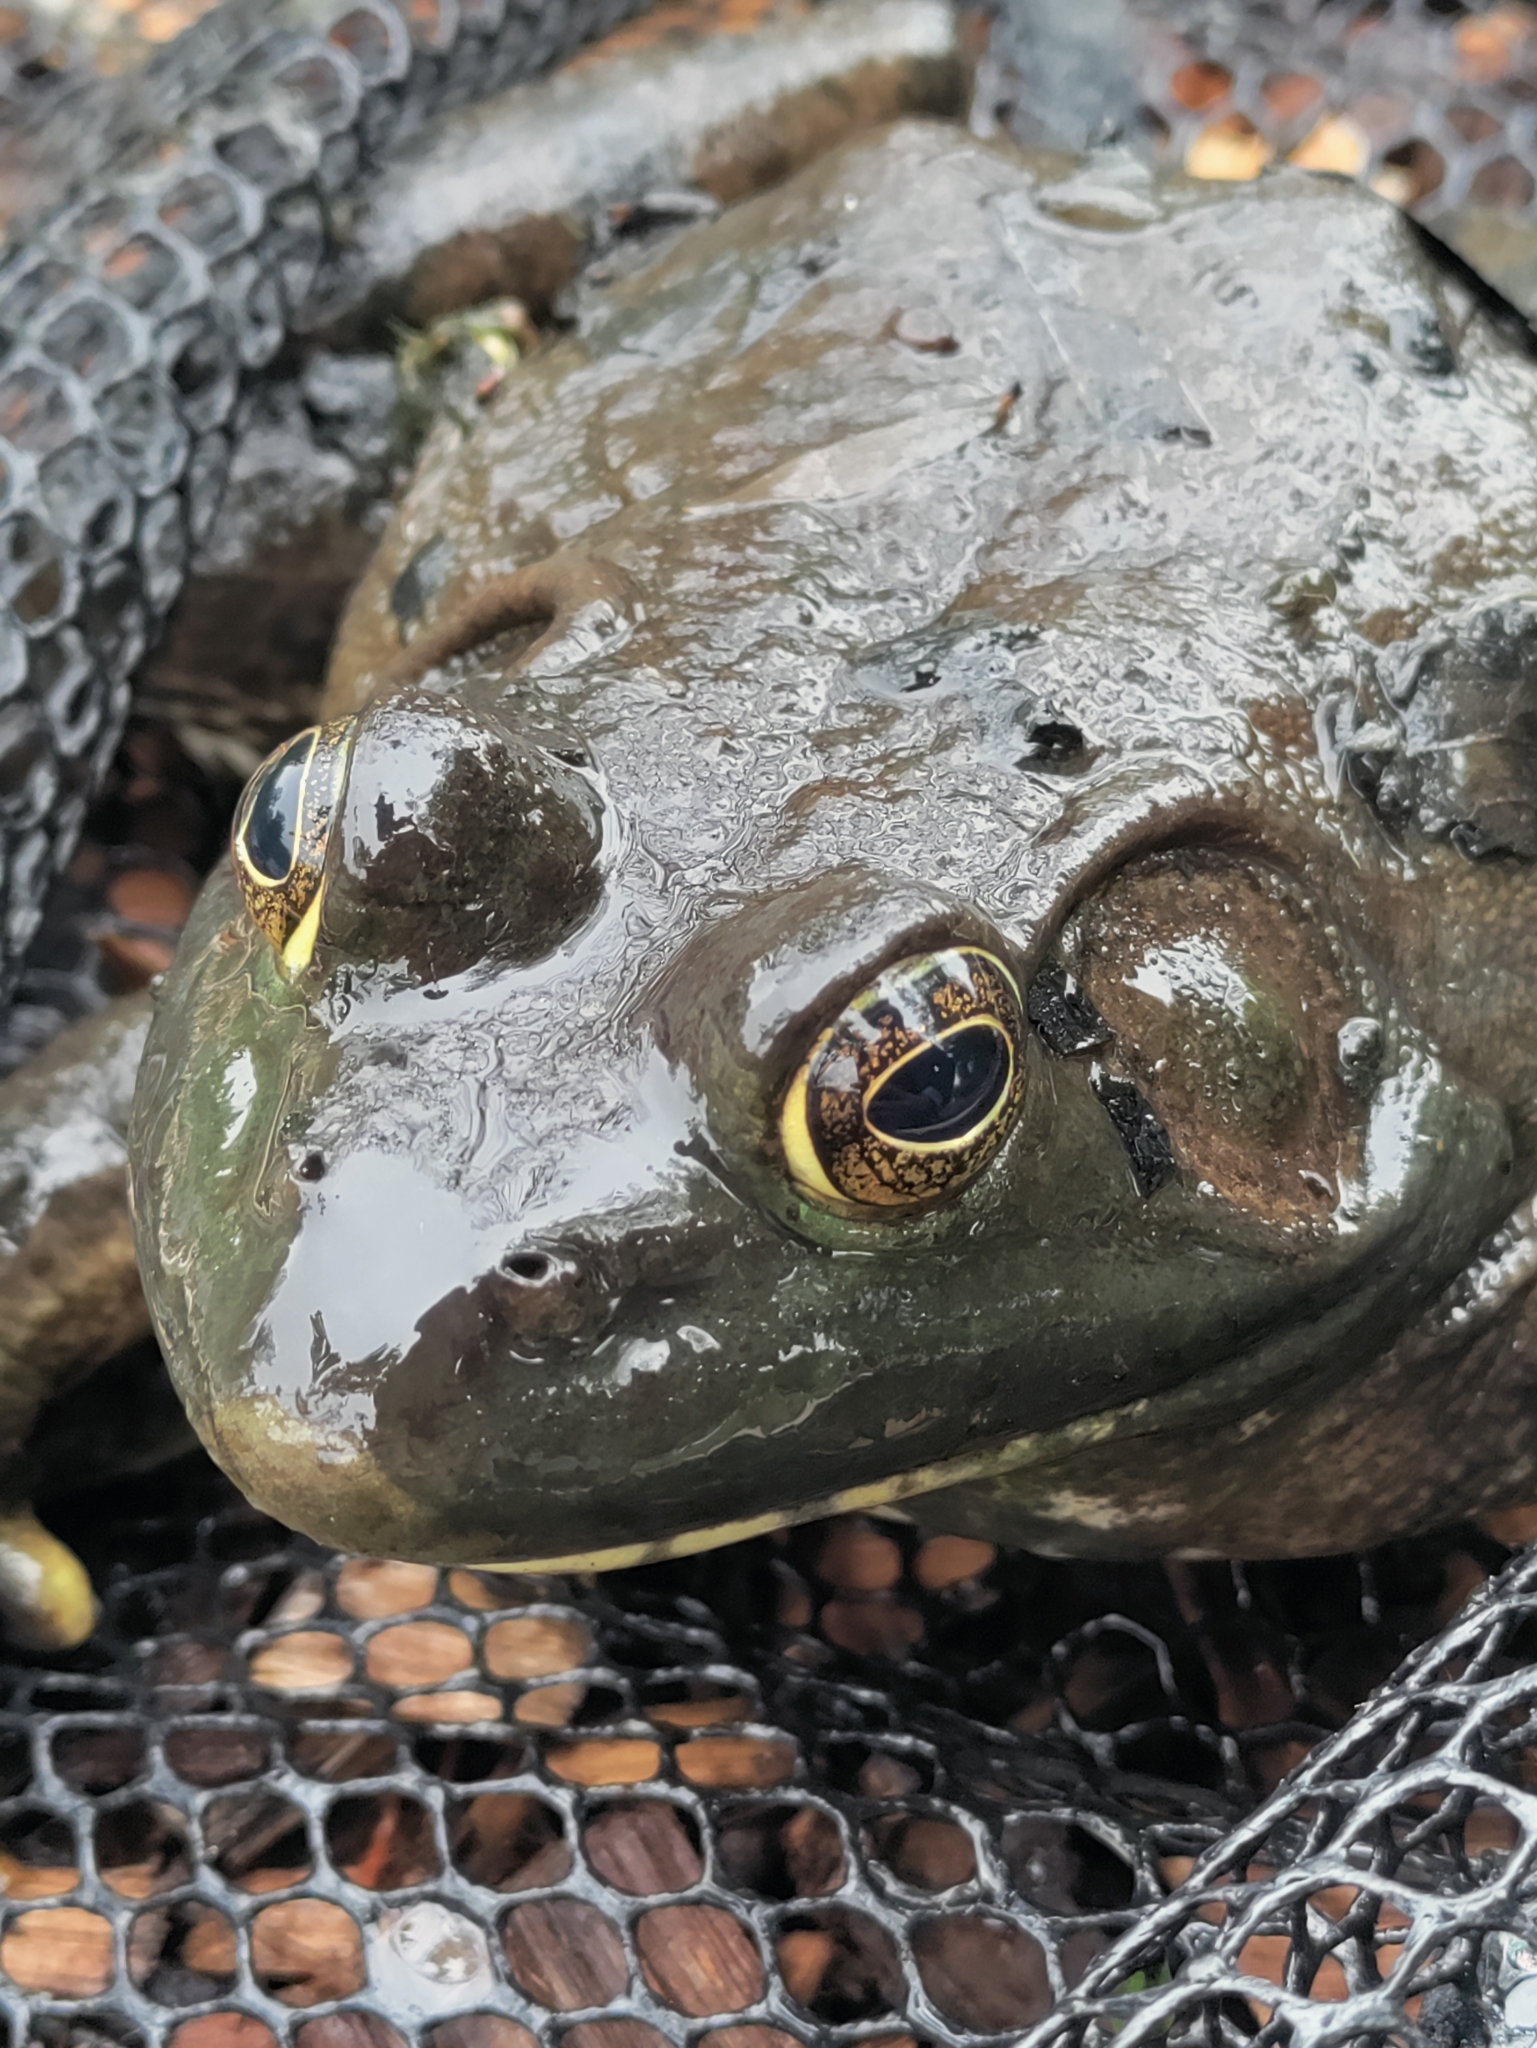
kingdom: Animalia
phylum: Chordata
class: Amphibia
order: Anura
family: Ranidae
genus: Lithobates
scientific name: Lithobates catesbeianus
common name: American bullfrog
